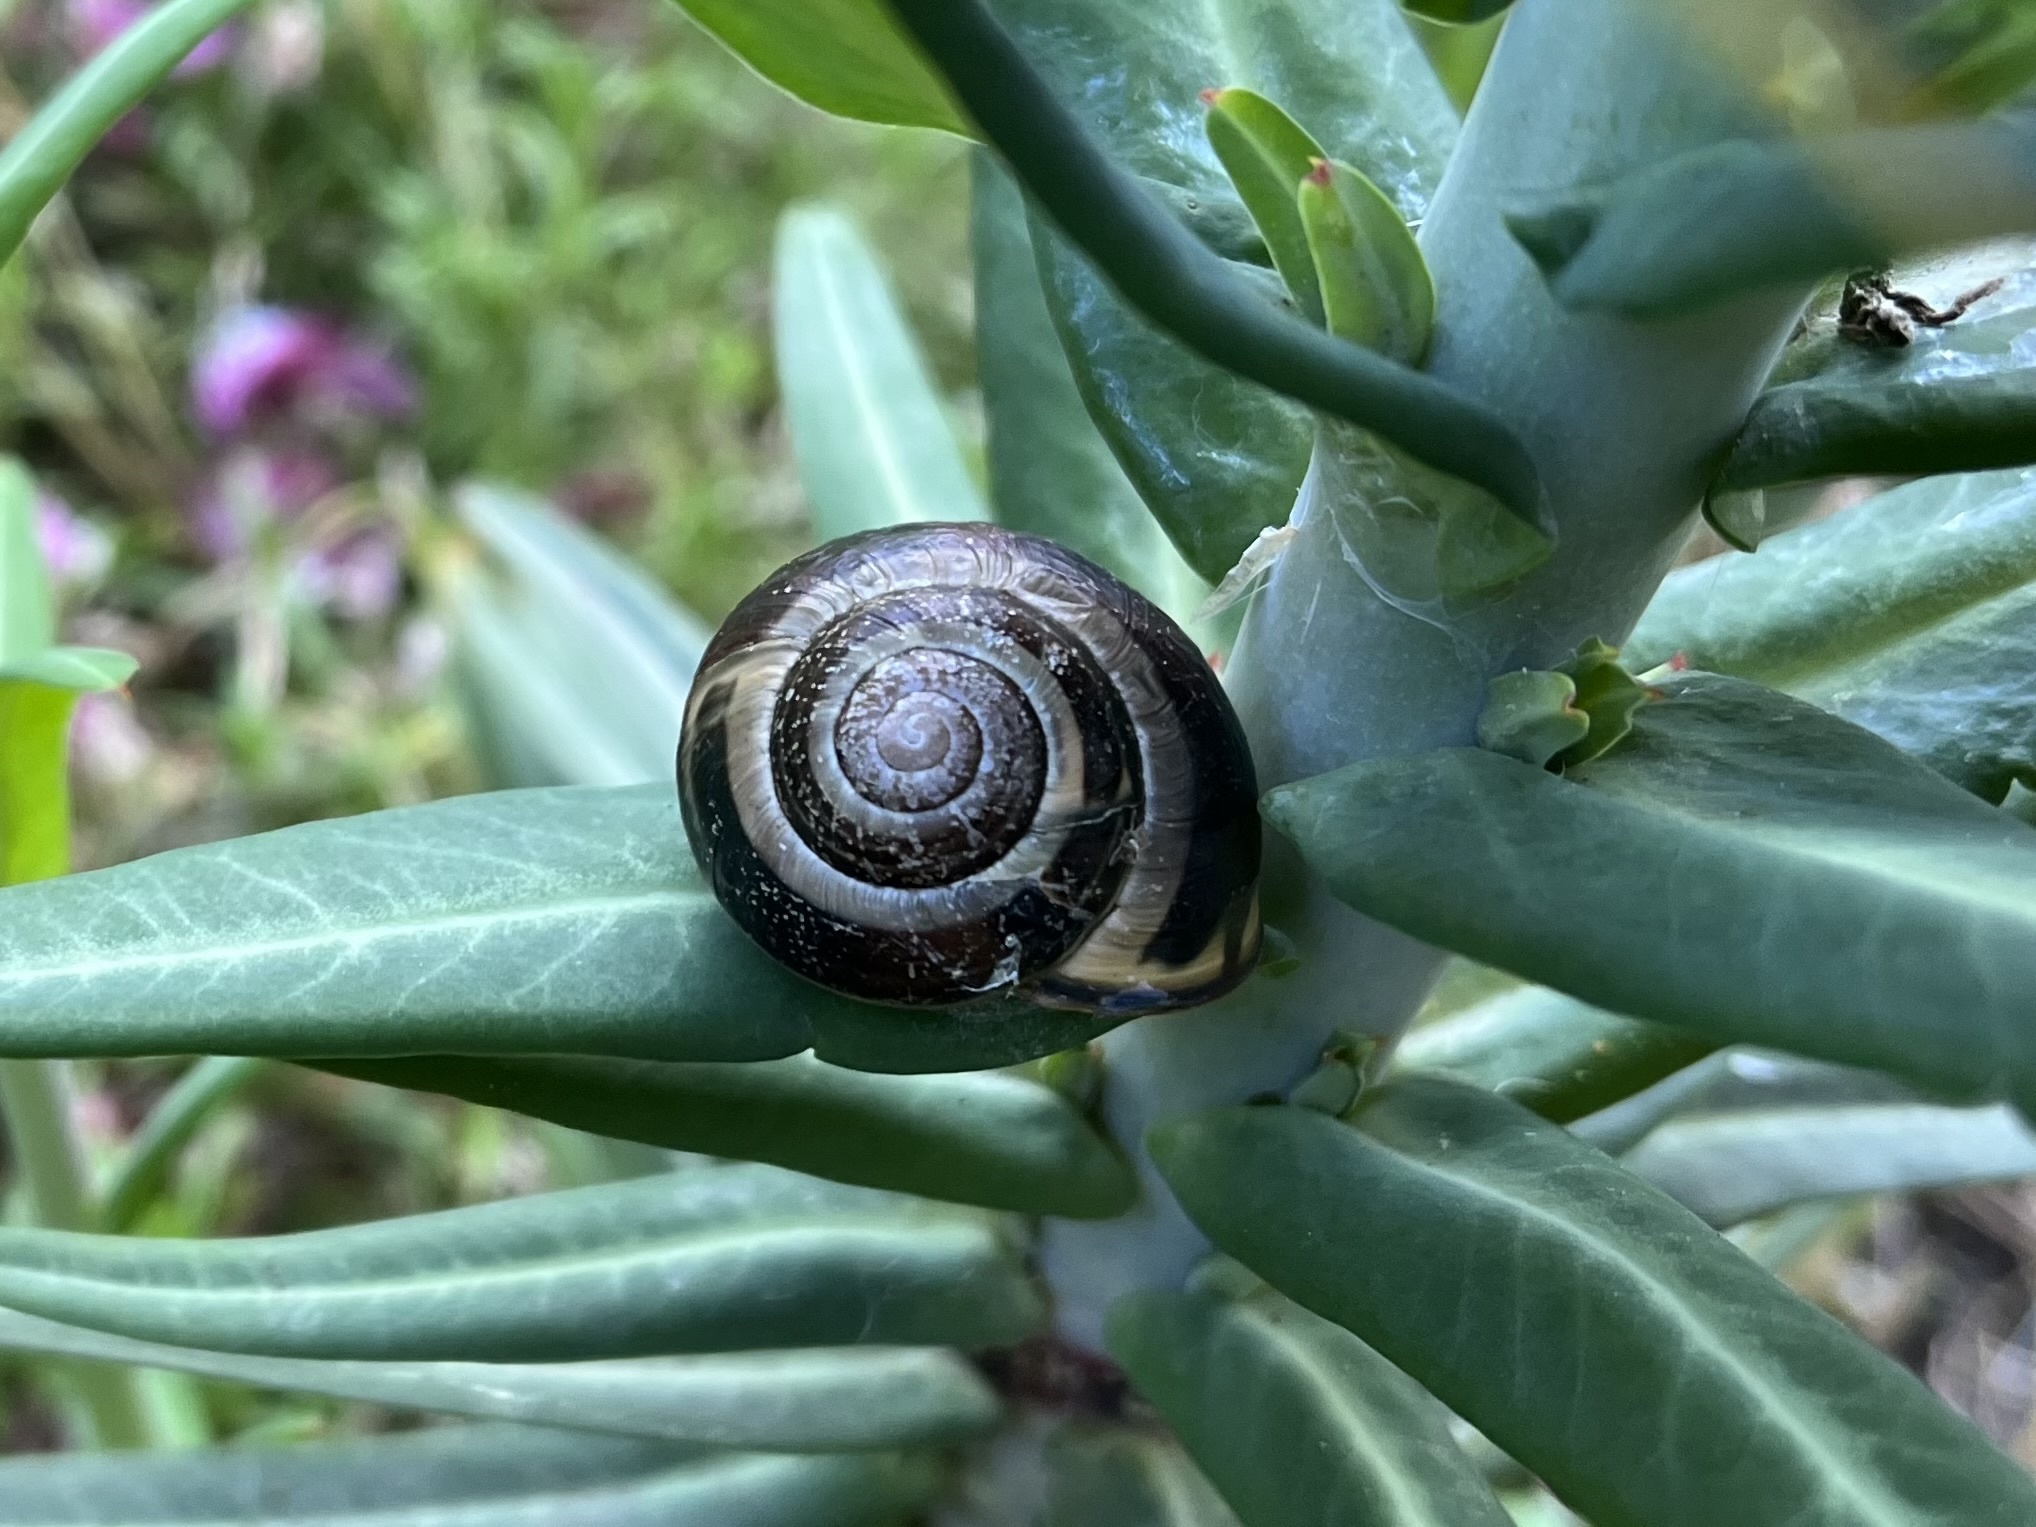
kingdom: Animalia
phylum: Mollusca
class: Gastropoda
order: Stylommatophora
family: Helicidae
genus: Cepaea
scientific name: Cepaea nemoralis
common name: Grovesnail
